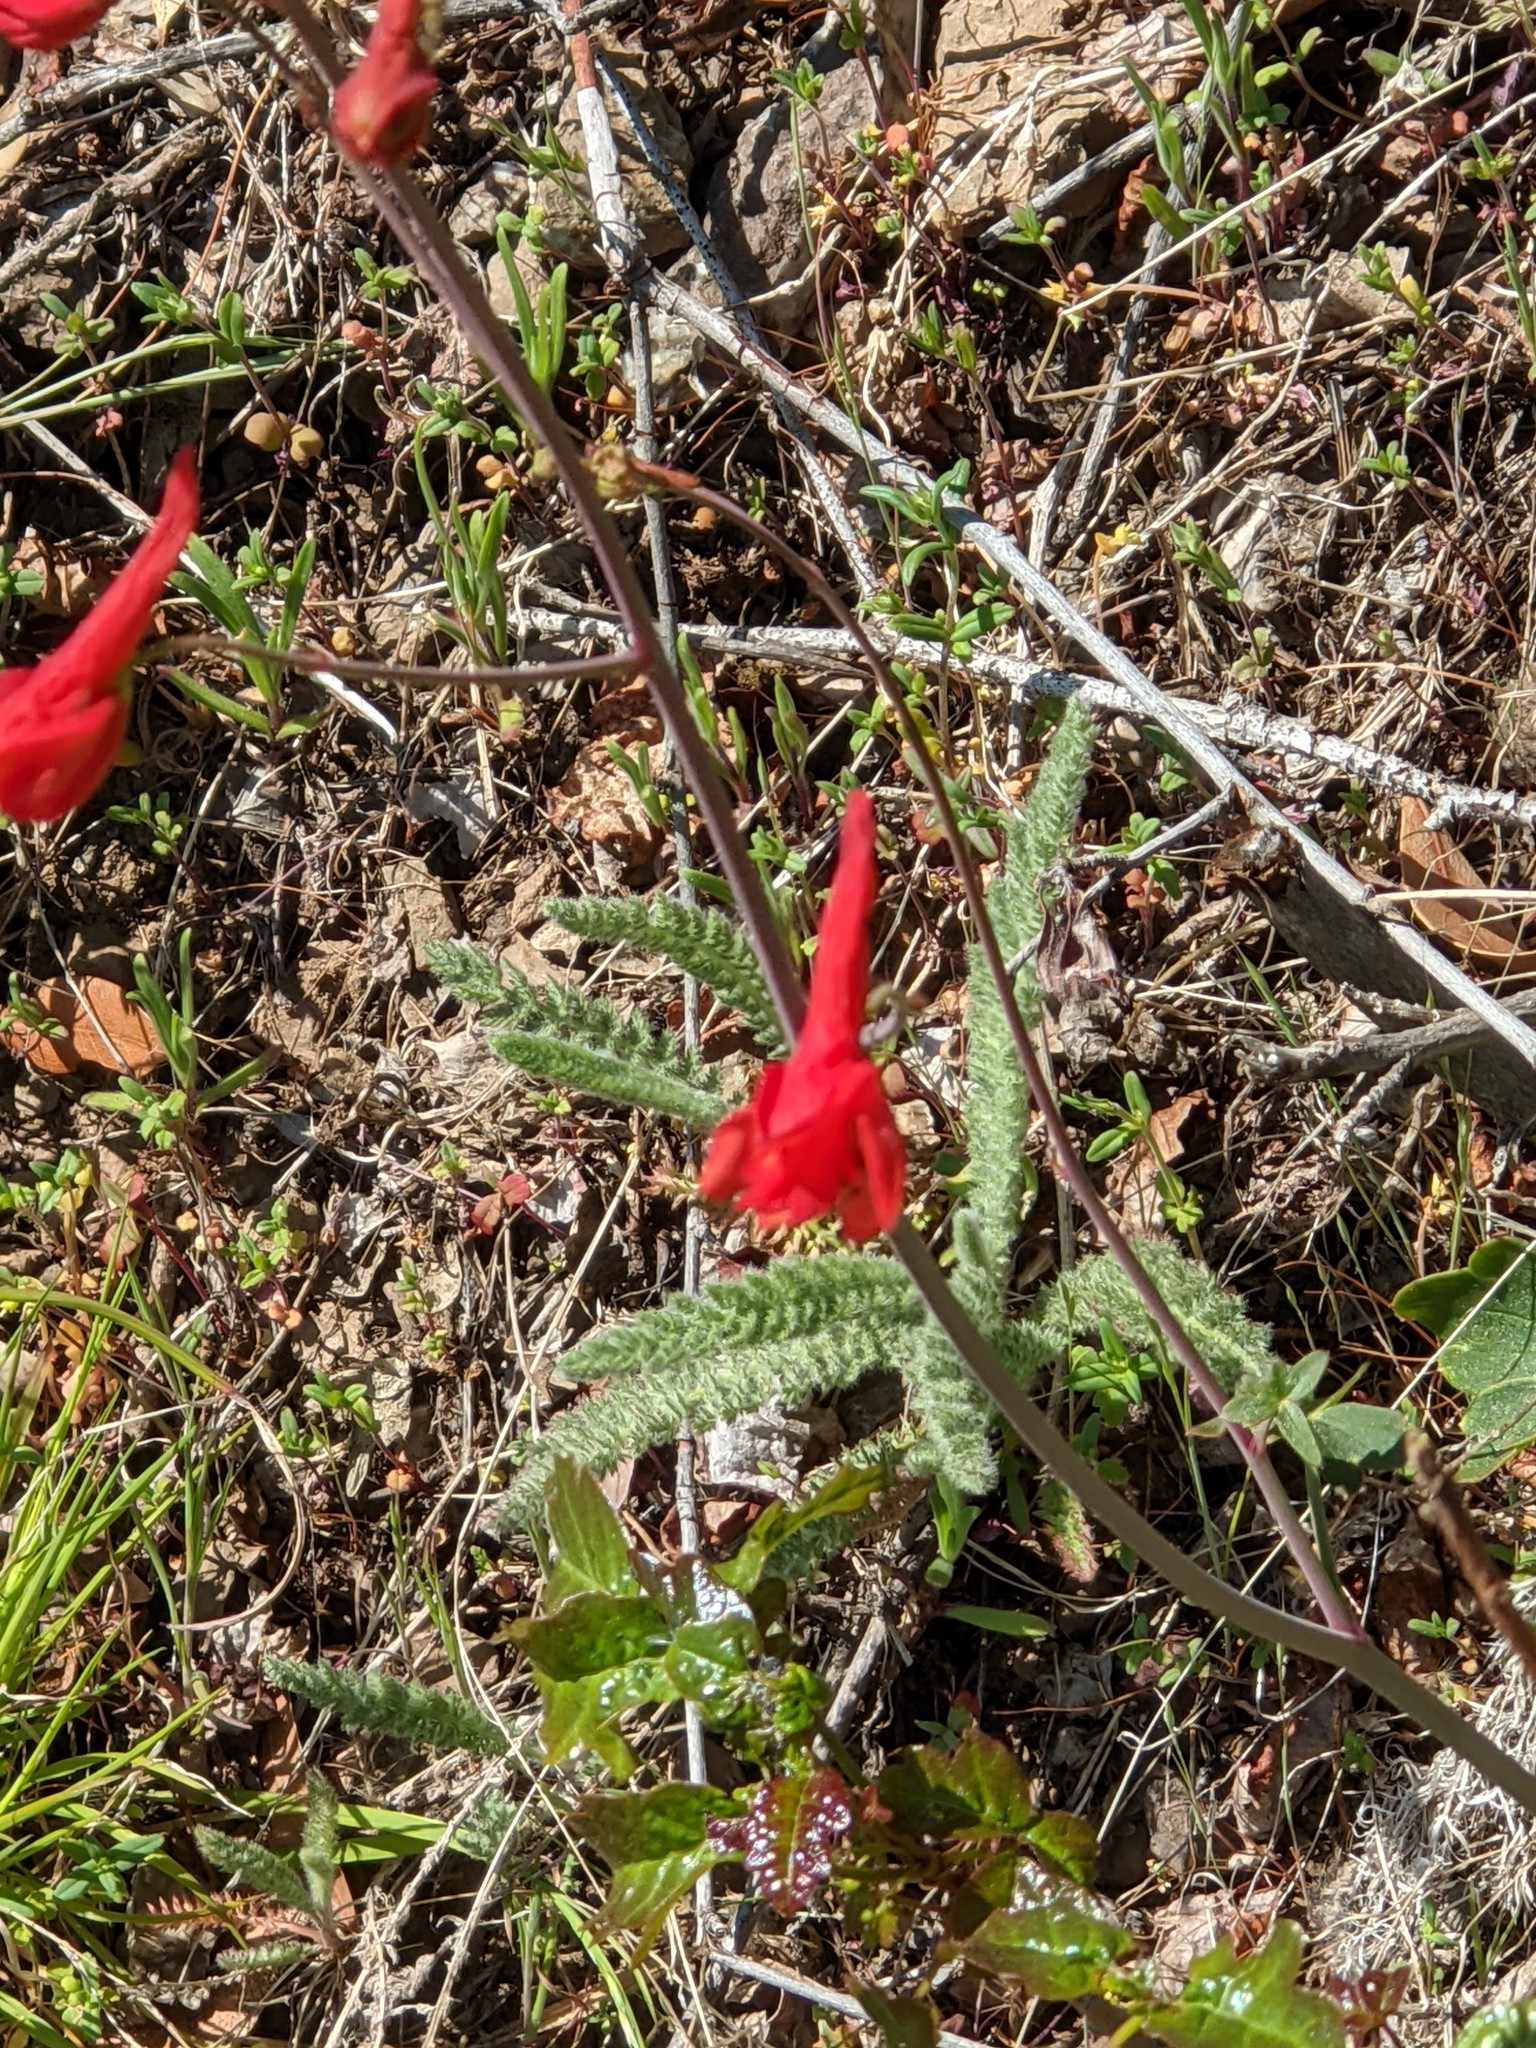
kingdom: Plantae
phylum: Tracheophyta
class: Magnoliopsida
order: Ranunculales
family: Ranunculaceae
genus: Delphinium
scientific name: Delphinium nudicaule
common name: Red larkspur
